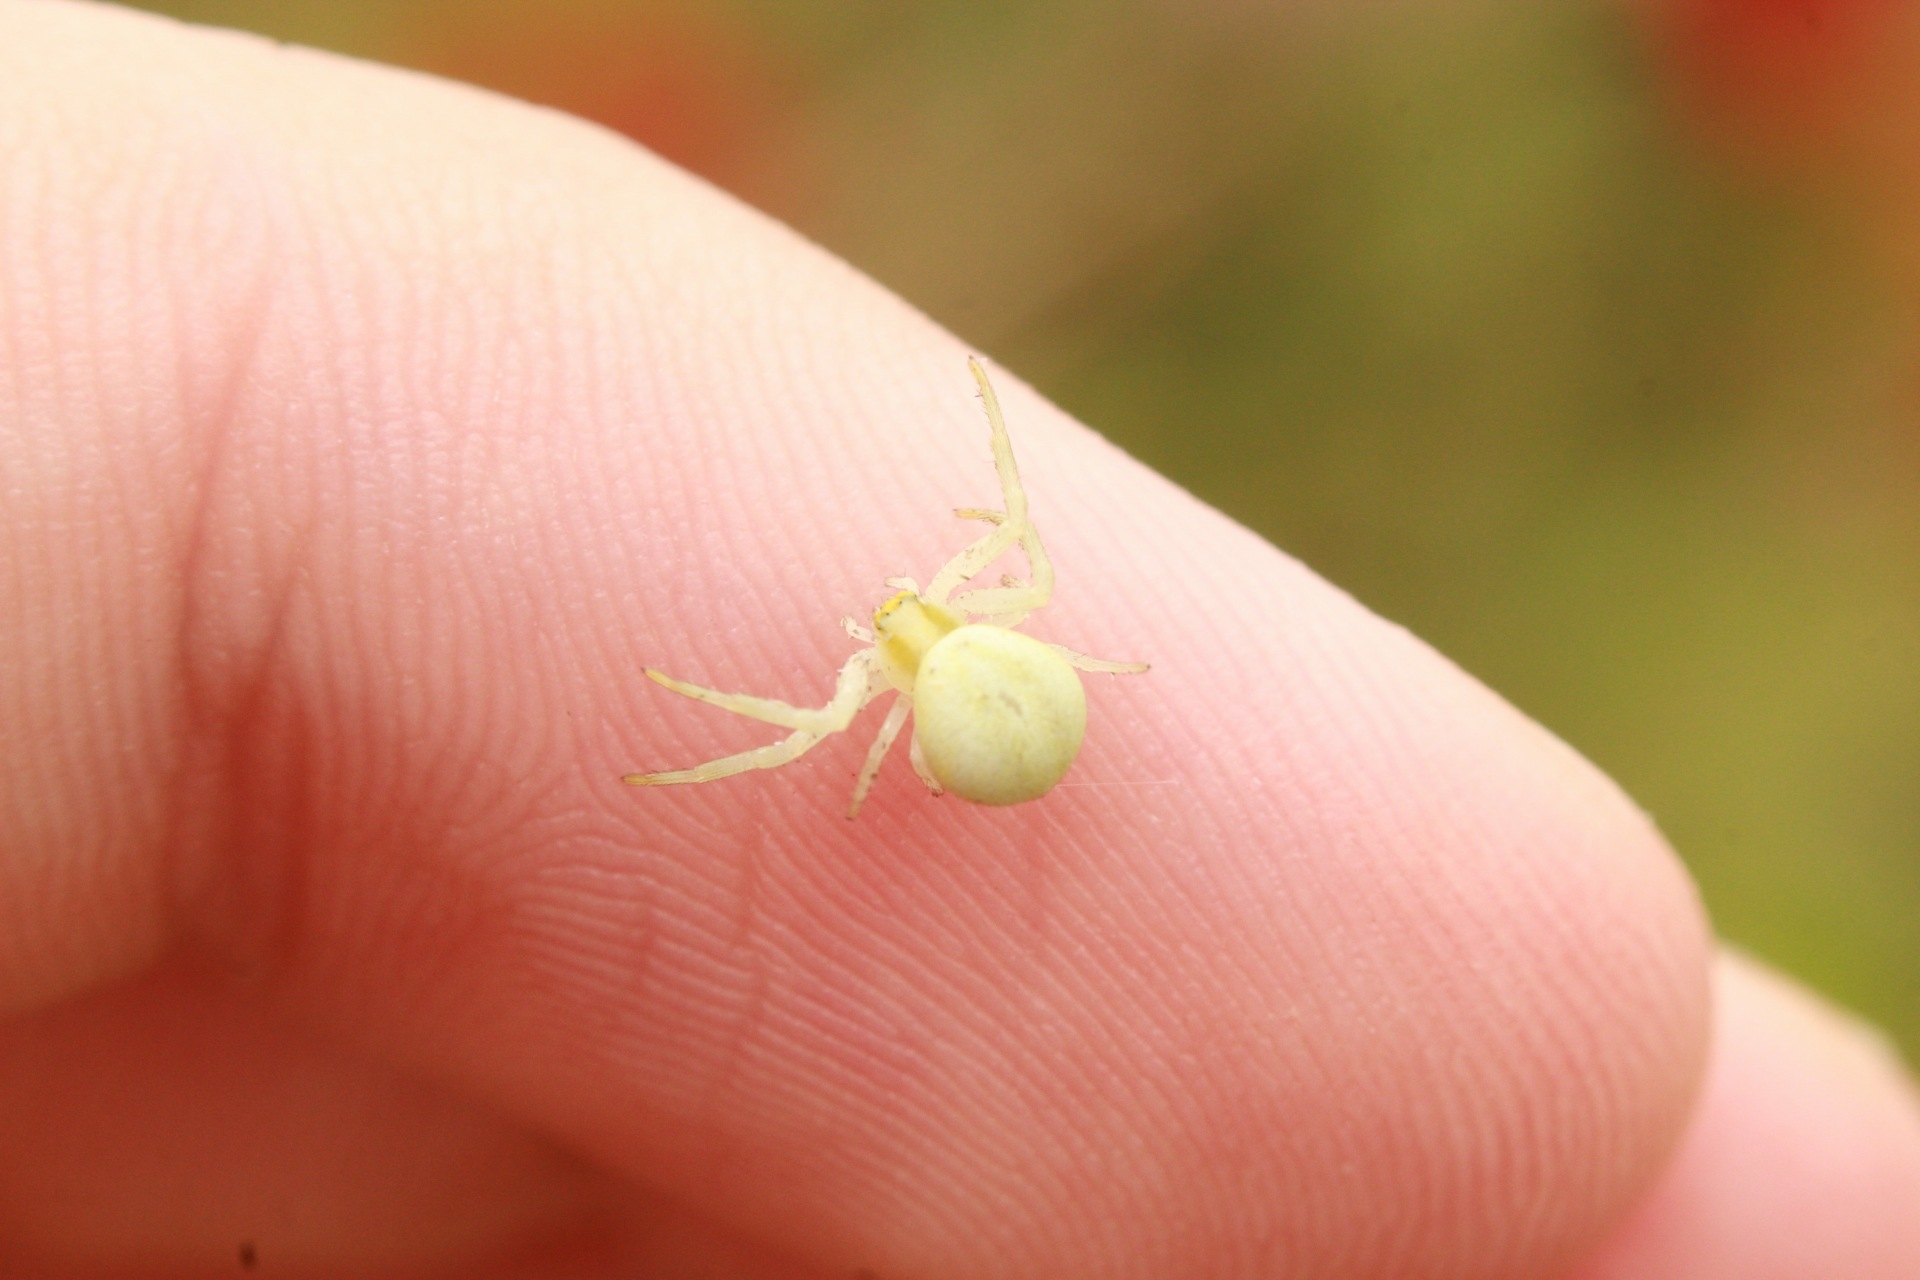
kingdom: Animalia
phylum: Arthropoda
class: Arachnida
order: Araneae
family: Thomisidae
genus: Misumena
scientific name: Misumena vatia
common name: Goldenrod crab spider
